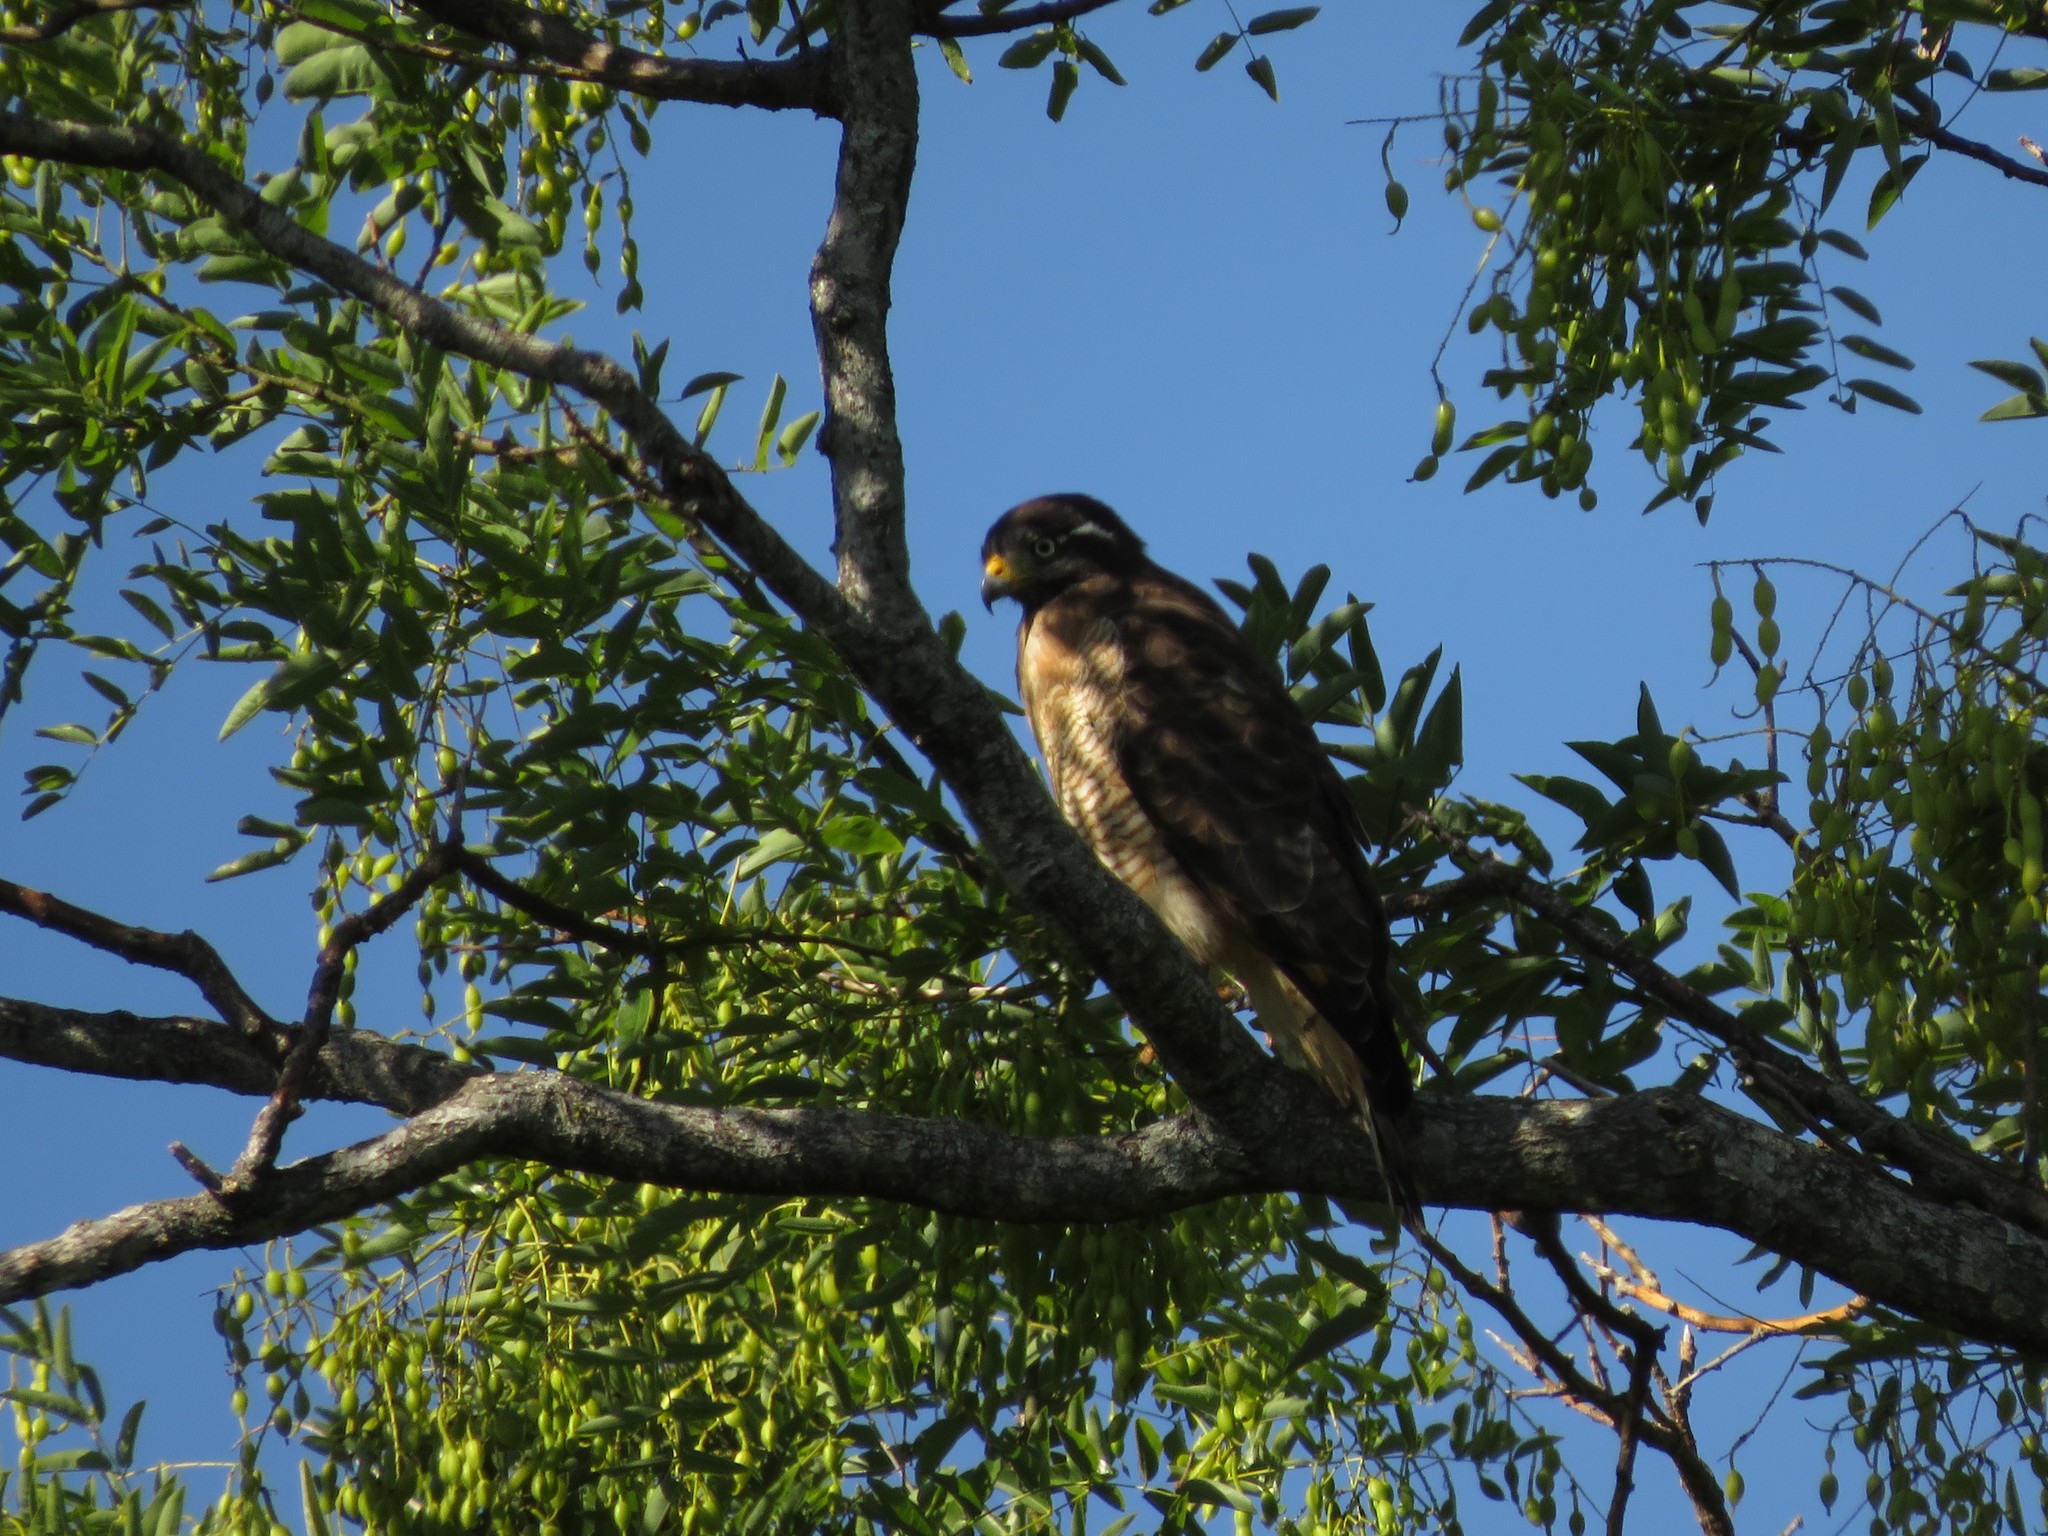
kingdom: Animalia
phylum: Chordata
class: Aves
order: Accipitriformes
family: Accipitridae
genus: Rupornis
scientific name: Rupornis magnirostris
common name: Roadside hawk
